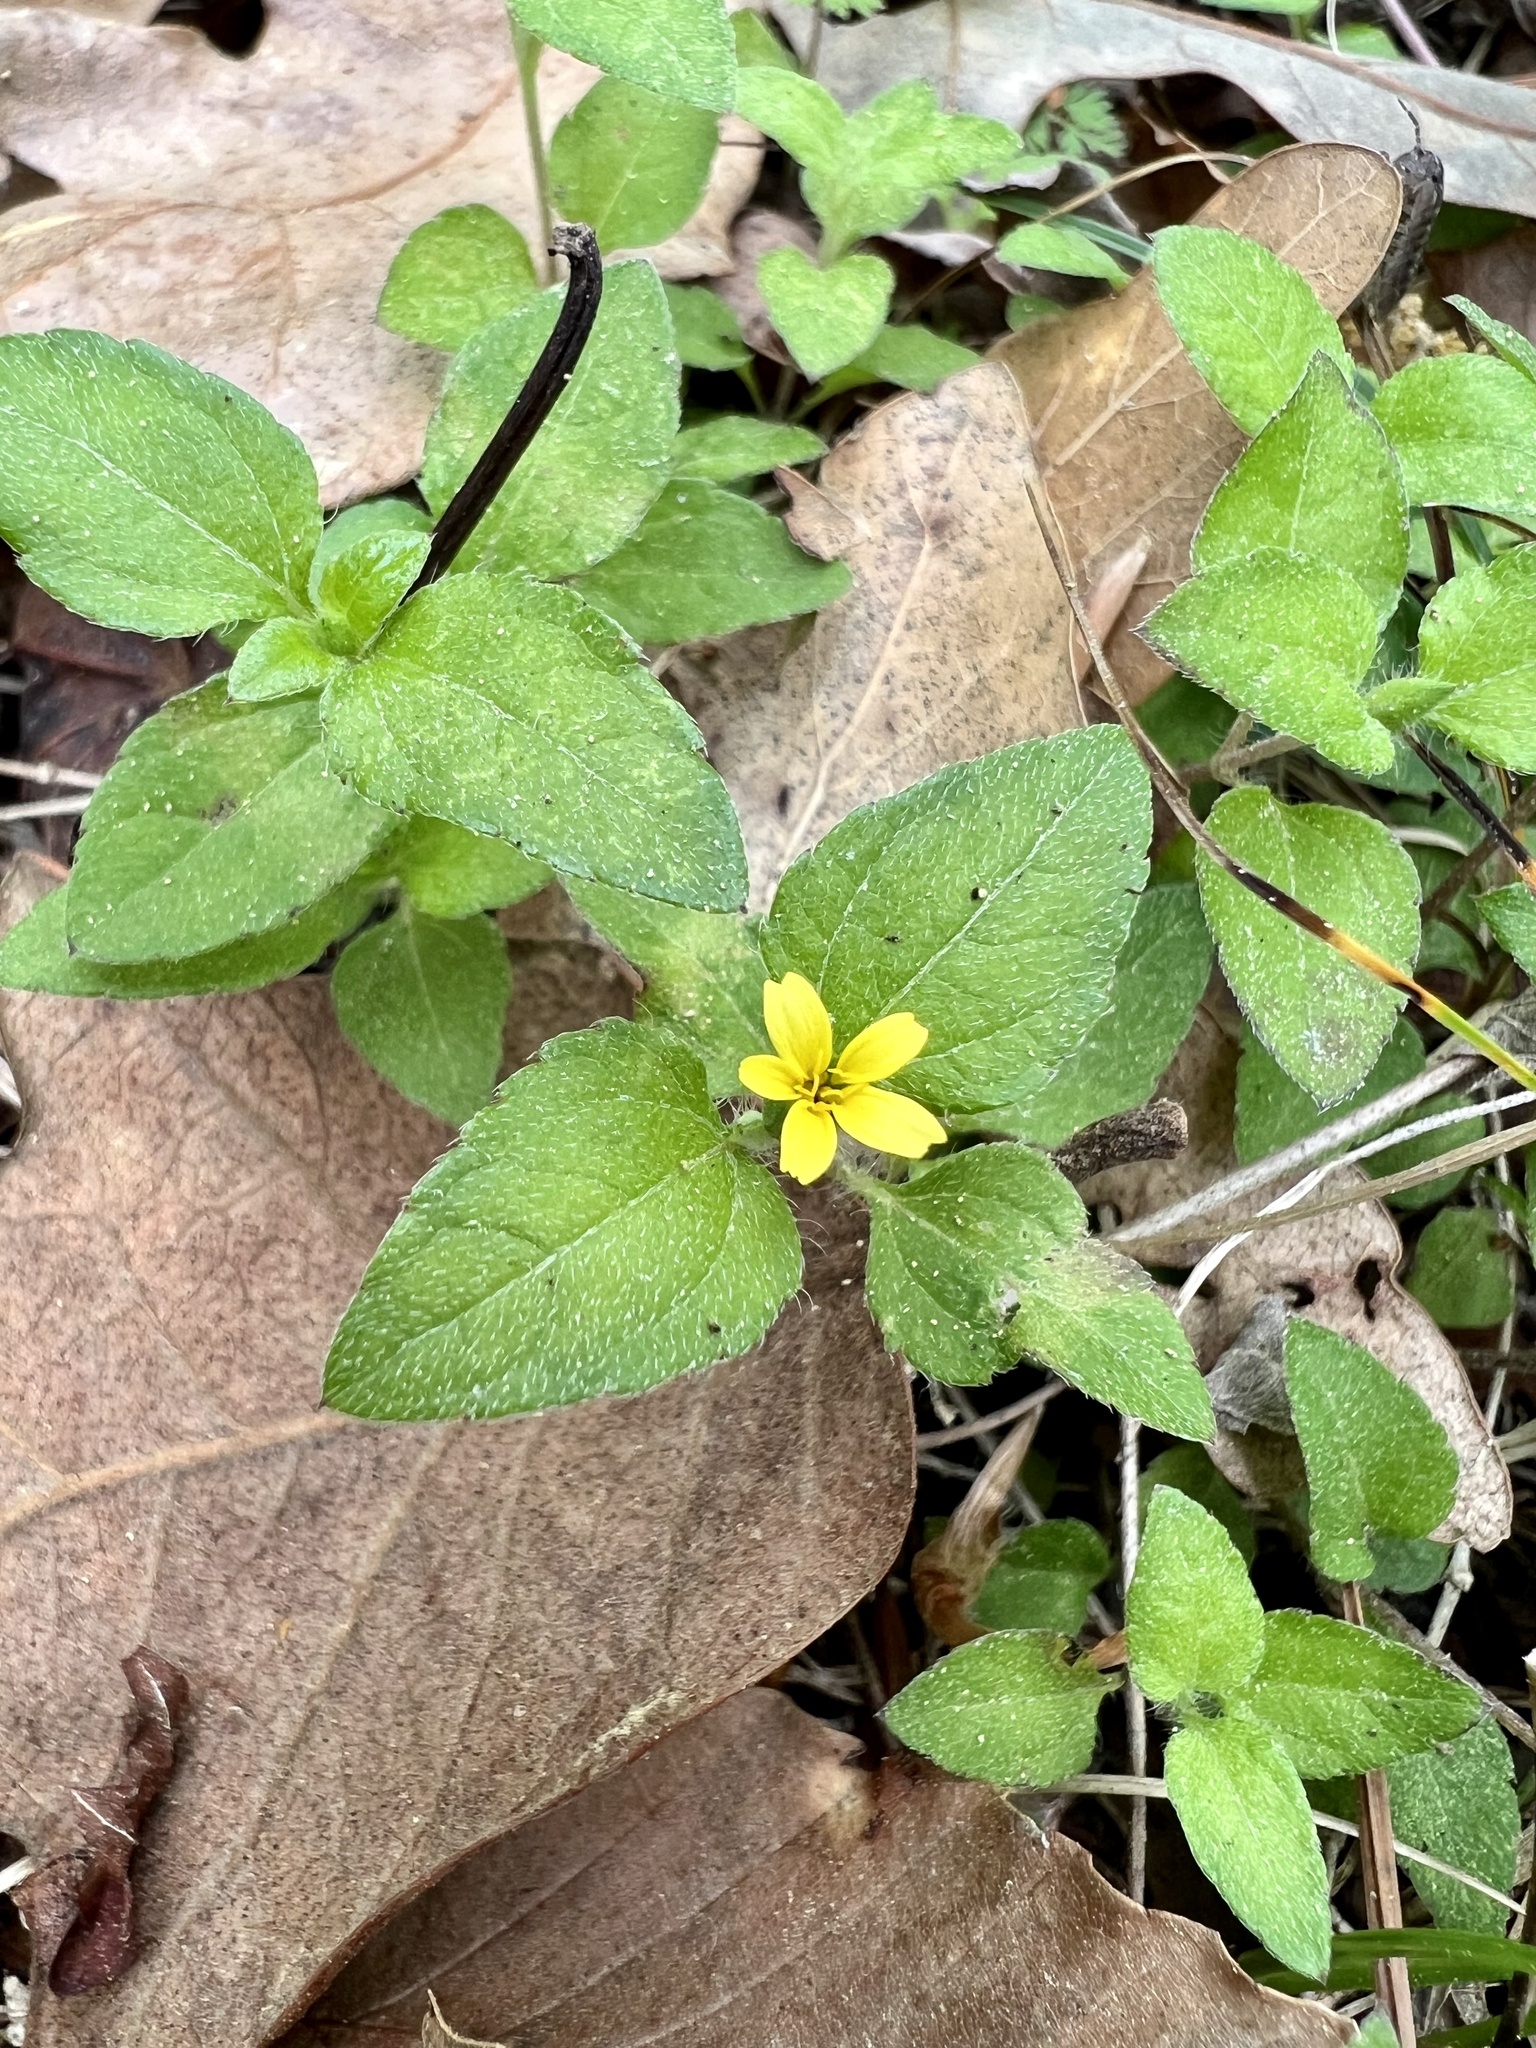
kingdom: Plantae
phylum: Tracheophyta
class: Magnoliopsida
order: Asterales
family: Asteraceae
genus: Calyptocarpus
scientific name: Calyptocarpus vialis
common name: Straggler daisy
